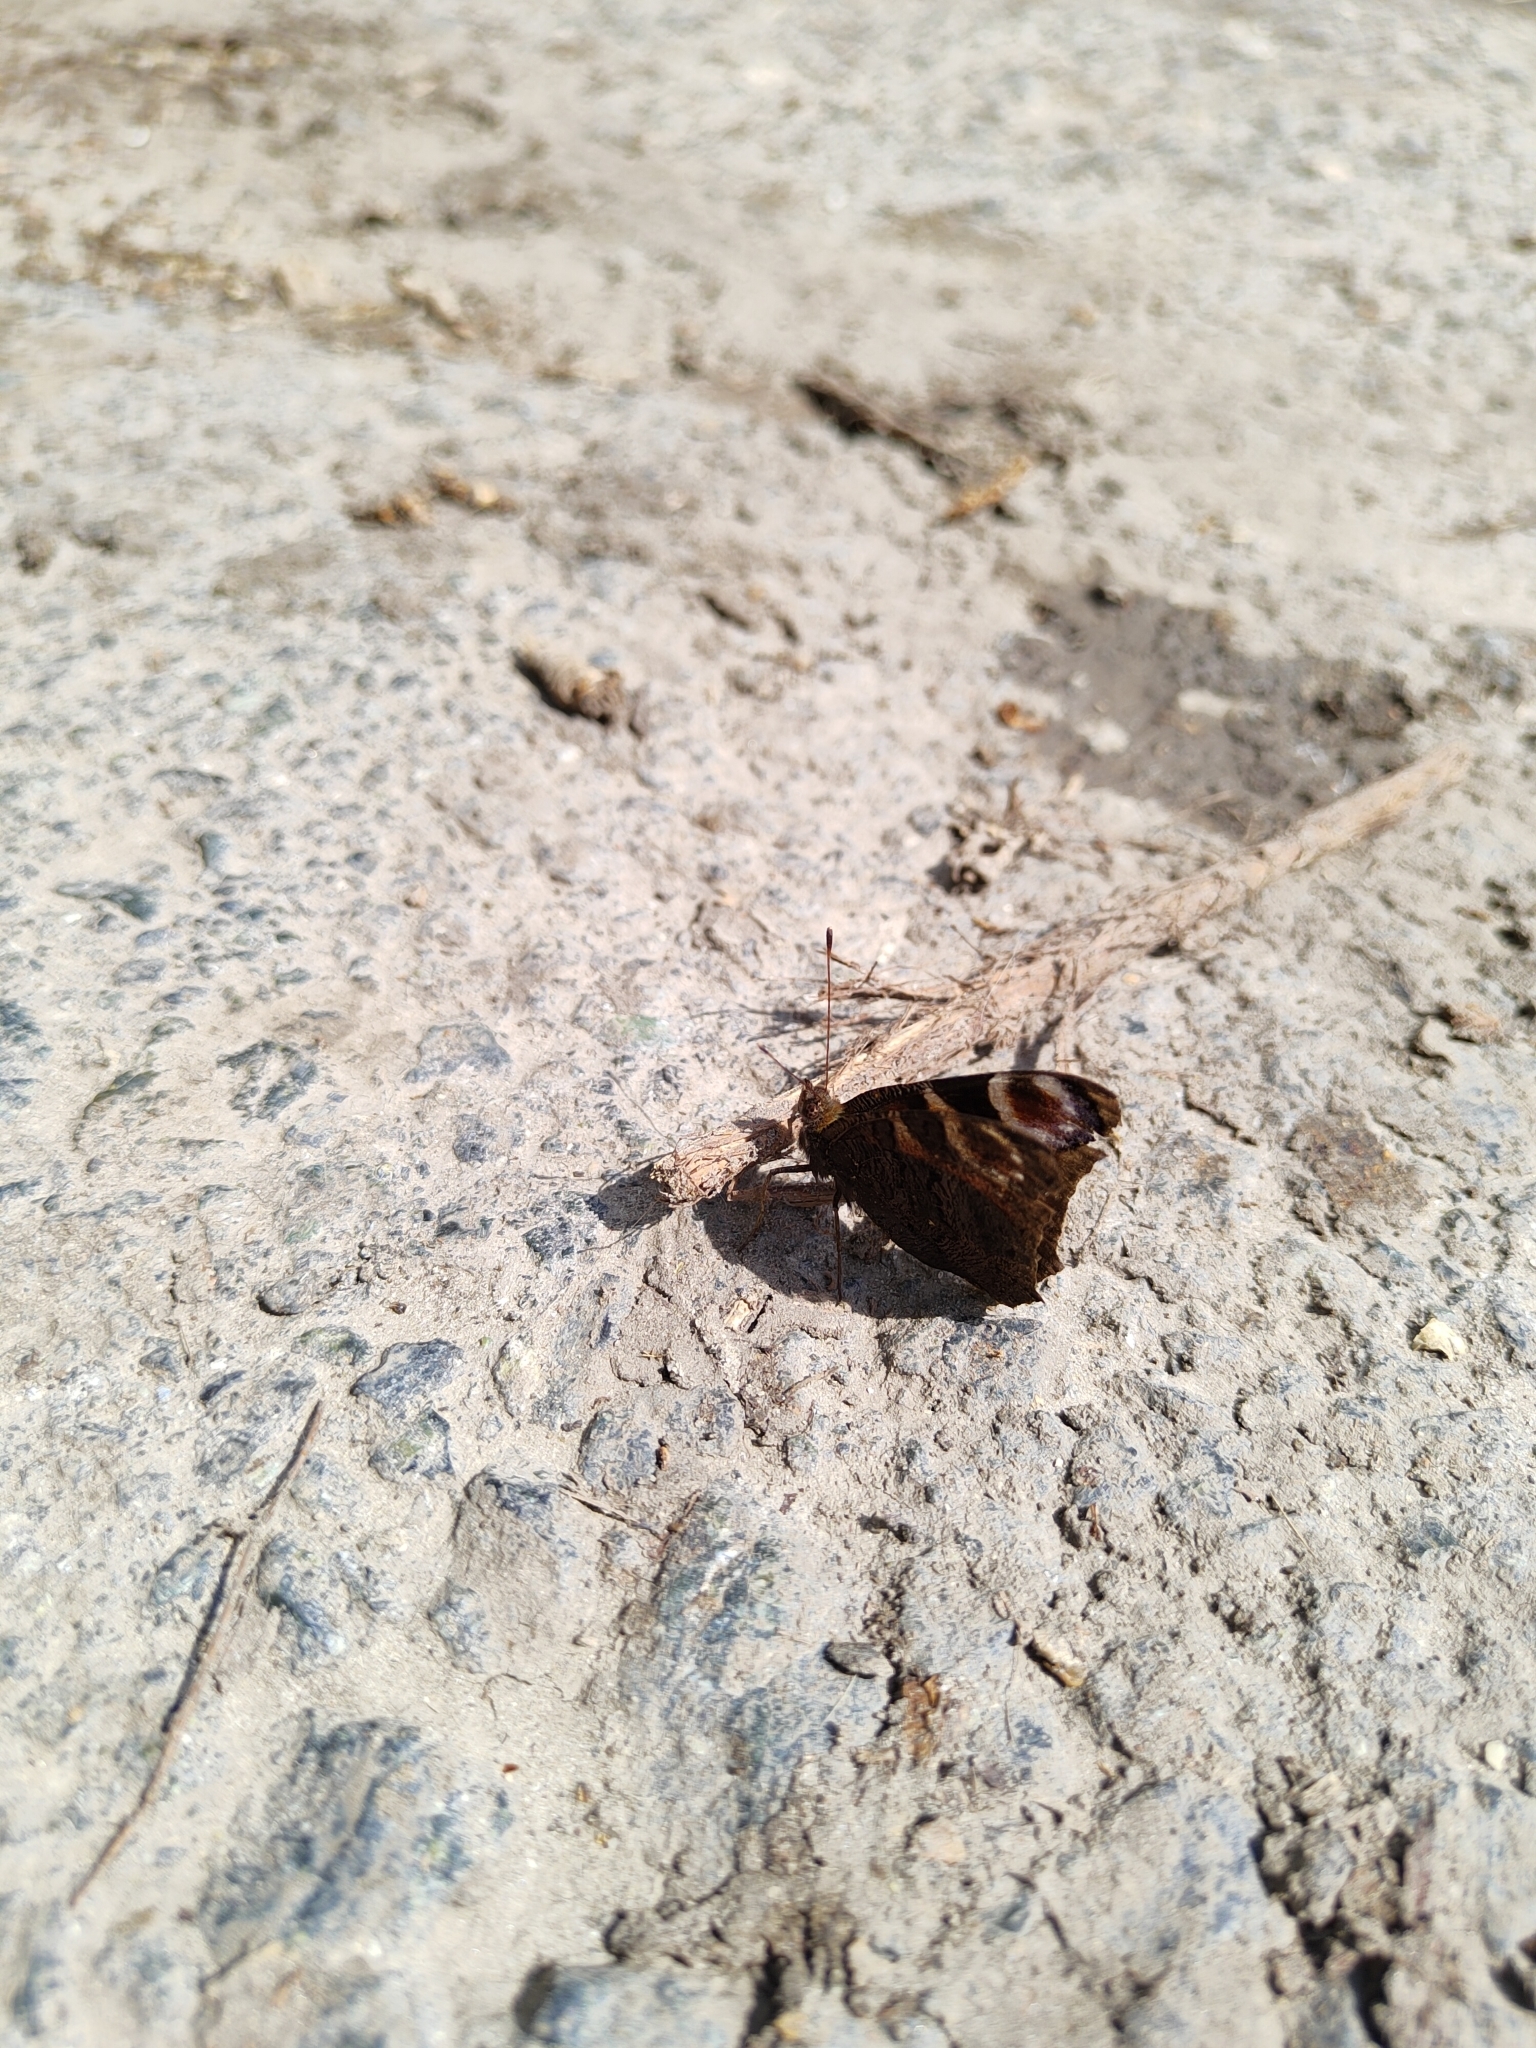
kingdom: Animalia
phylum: Arthropoda
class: Insecta
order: Lepidoptera
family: Nymphalidae
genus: Aglais
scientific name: Aglais io
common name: Peacock
